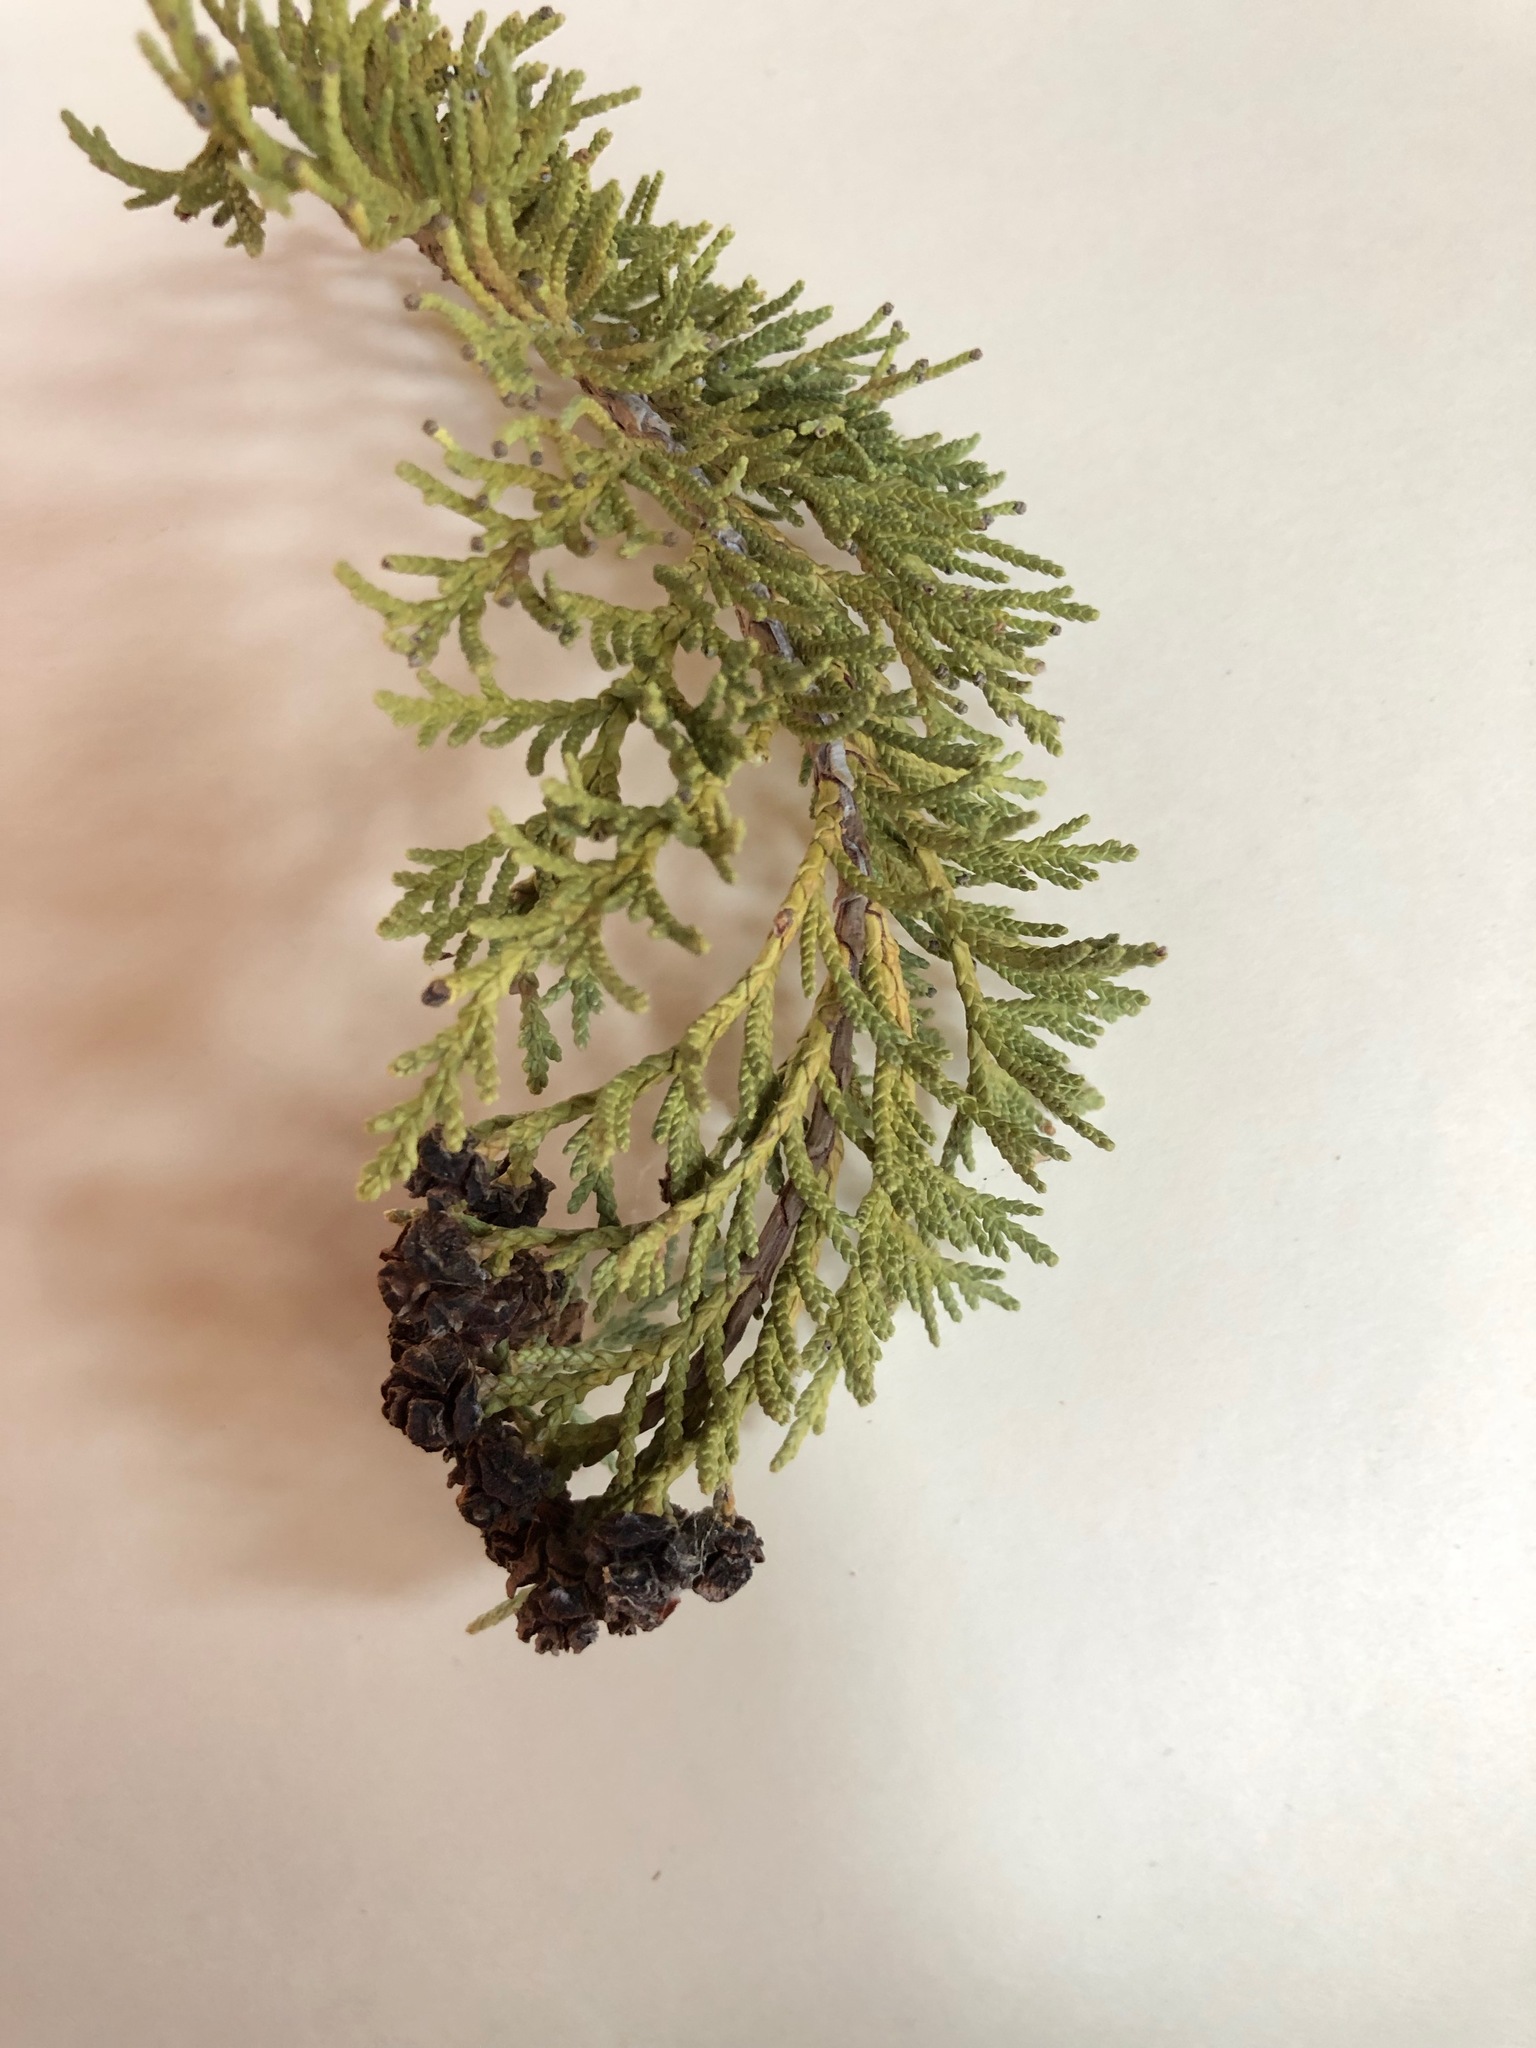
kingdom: Plantae
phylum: Tracheophyta
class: Pinopsida
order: Pinales
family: Cupressaceae
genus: Chamaecyparis
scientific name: Chamaecyparis lawsoniana
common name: Lawson's cypress
